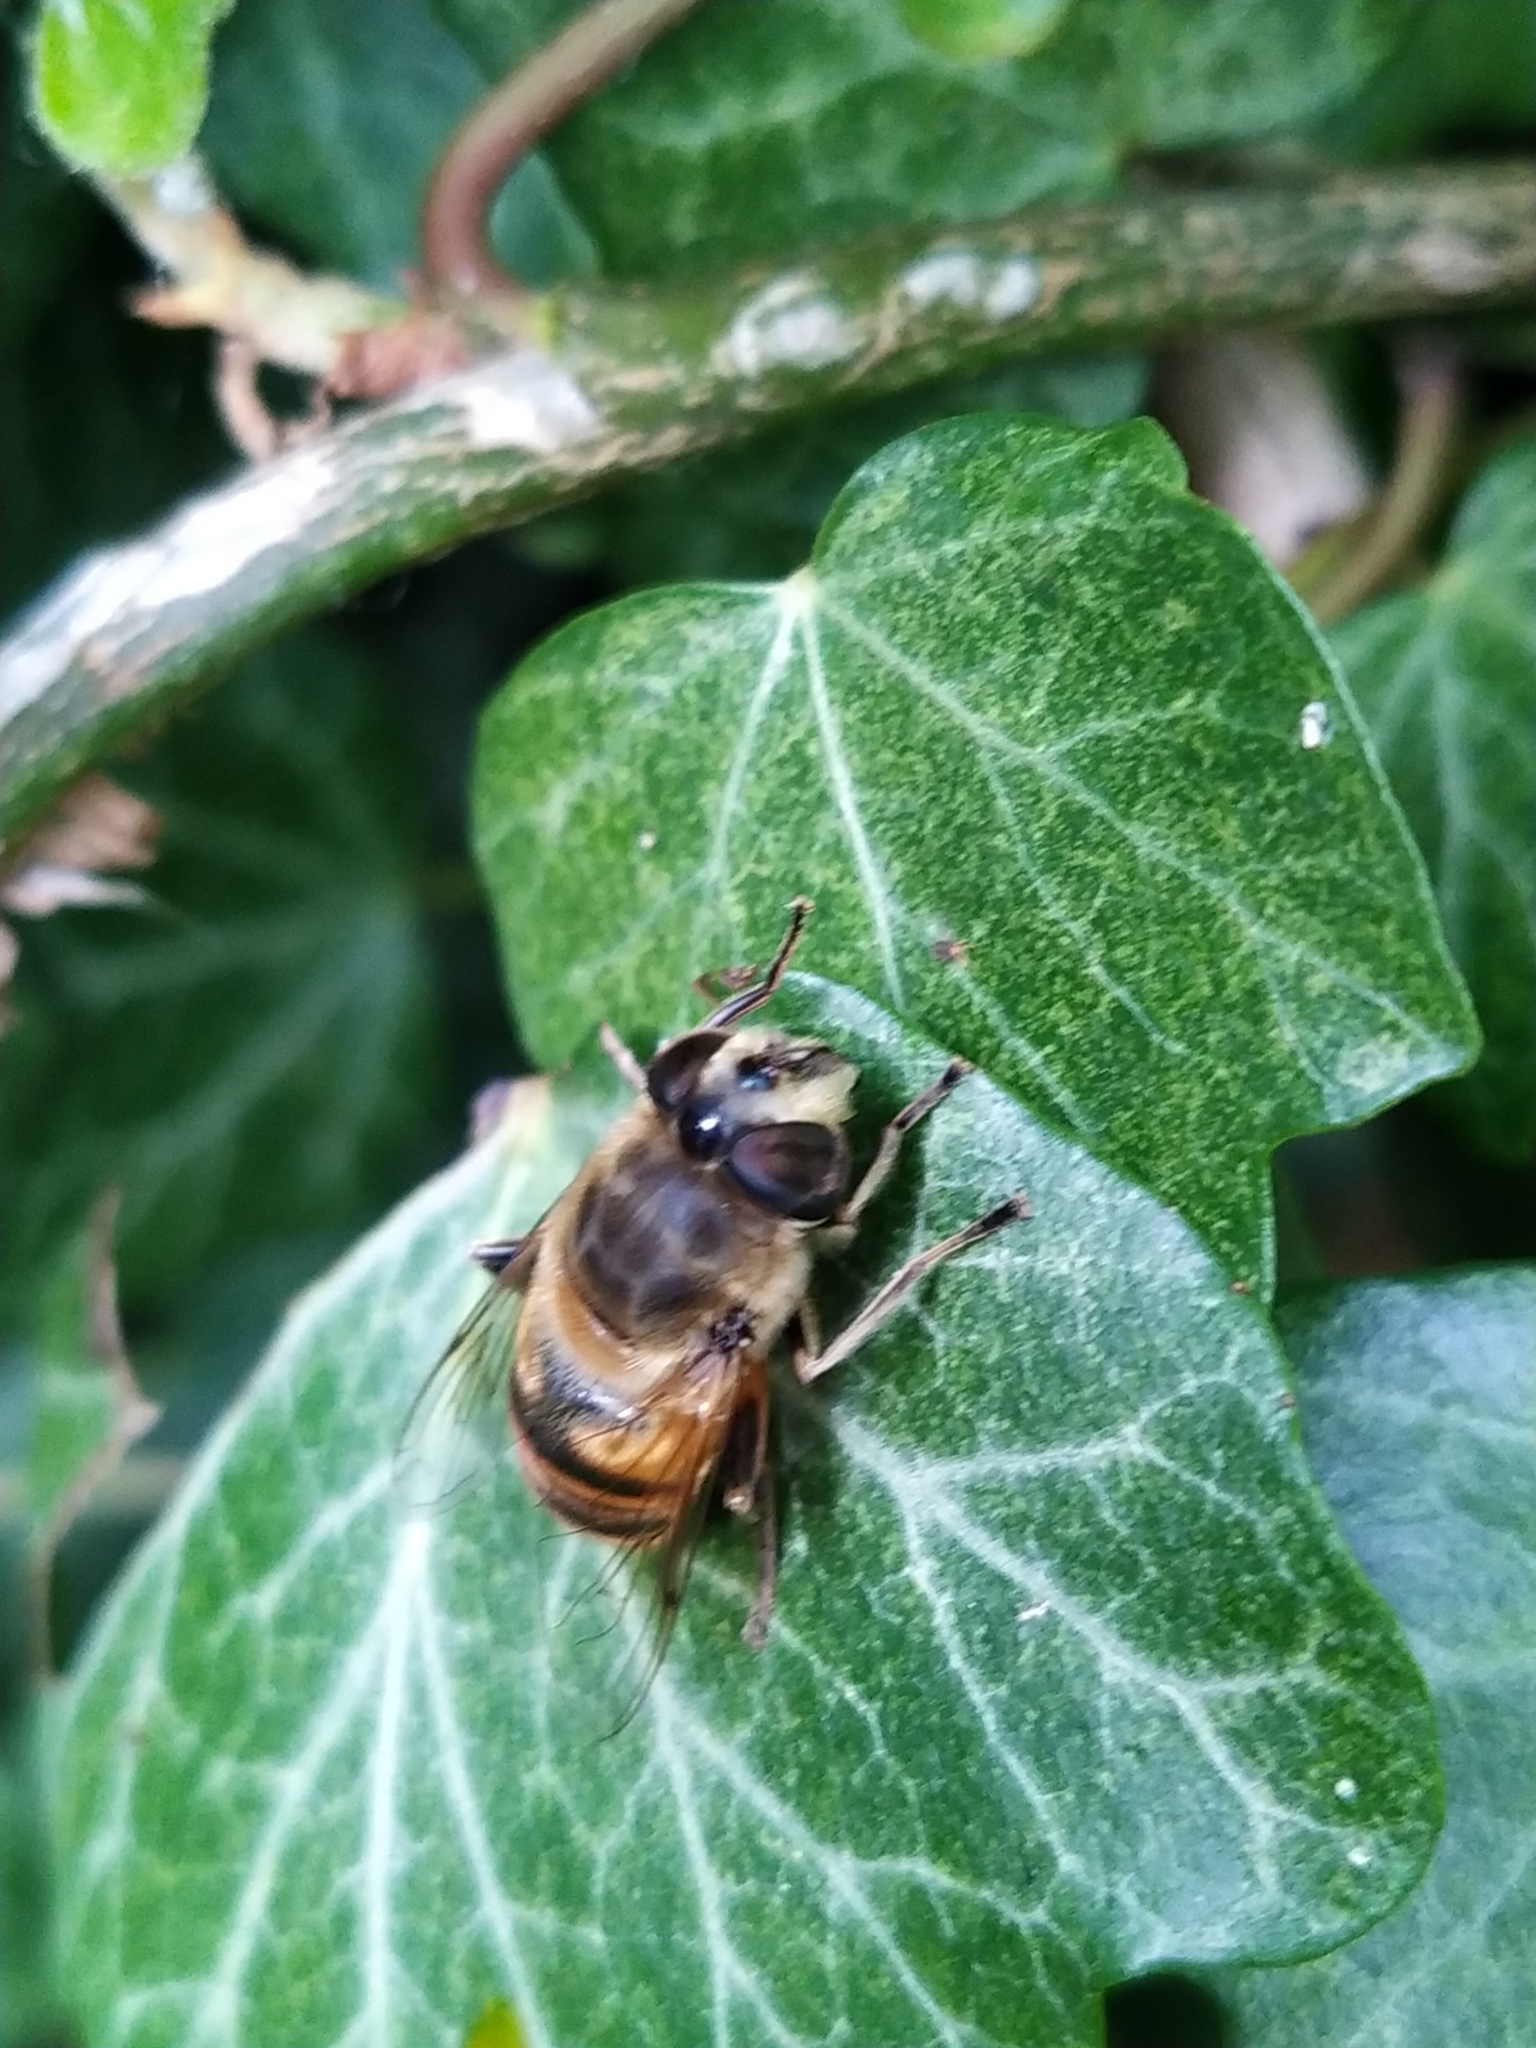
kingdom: Animalia
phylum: Arthropoda
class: Insecta
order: Diptera
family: Syrphidae
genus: Eristalis
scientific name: Eristalis tenax
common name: Drone fly
